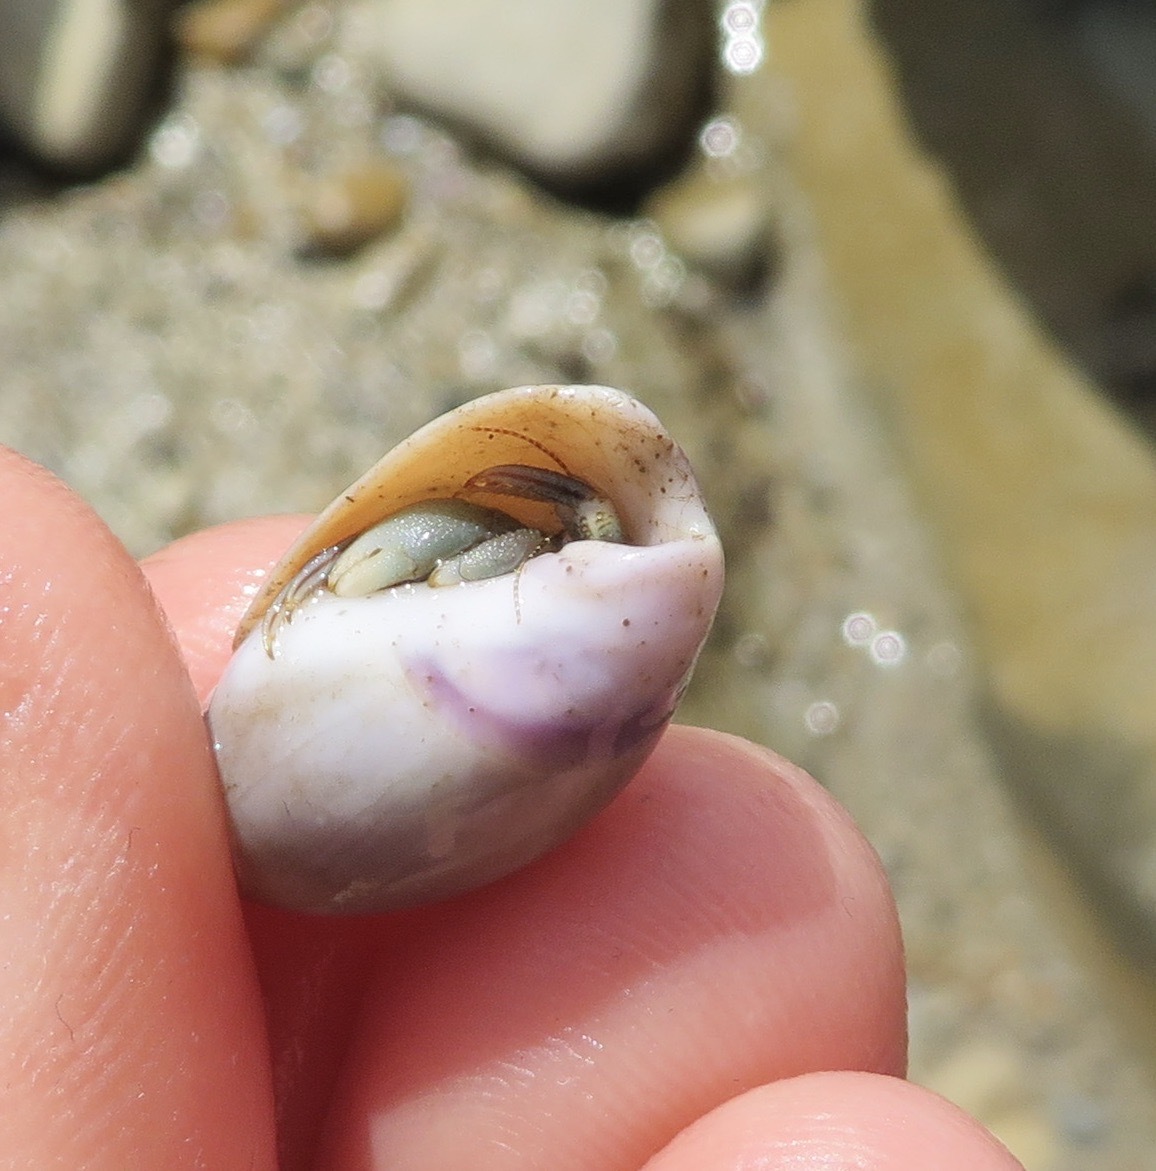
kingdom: Animalia
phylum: Arthropoda
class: Malacostraca
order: Decapoda
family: Paguridae
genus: Pagurus
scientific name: Pagurus samuelis
